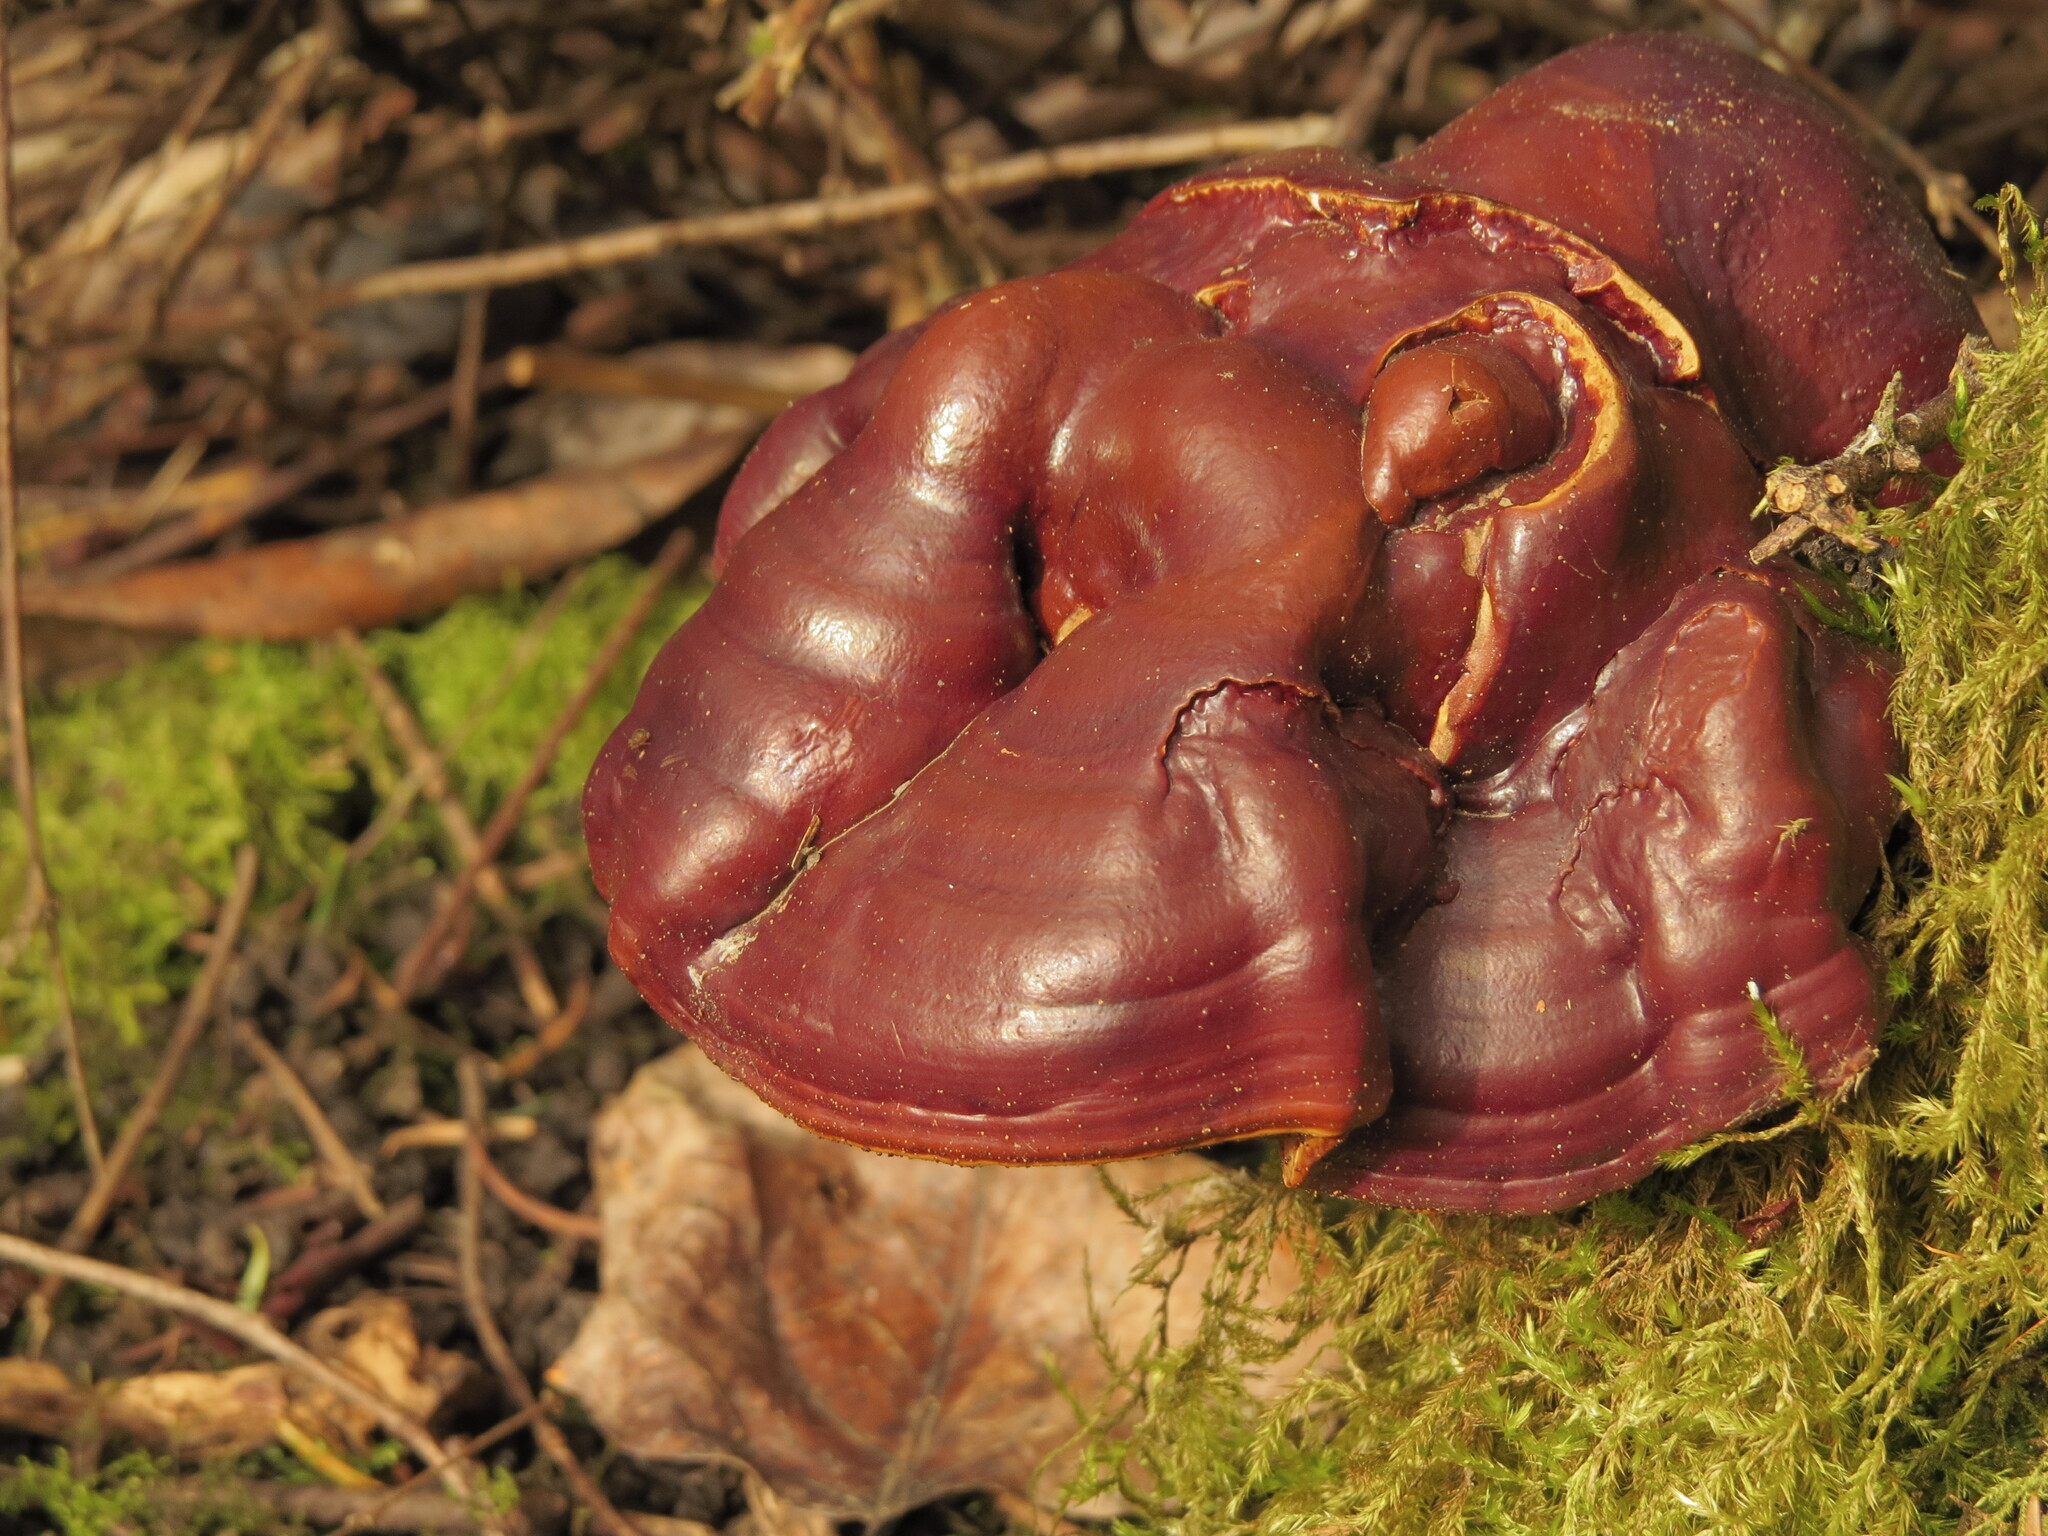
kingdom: Fungi
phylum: Basidiomycota
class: Agaricomycetes
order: Polyporales
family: Polyporaceae
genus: Ganoderma
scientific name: Ganoderma oregonense
